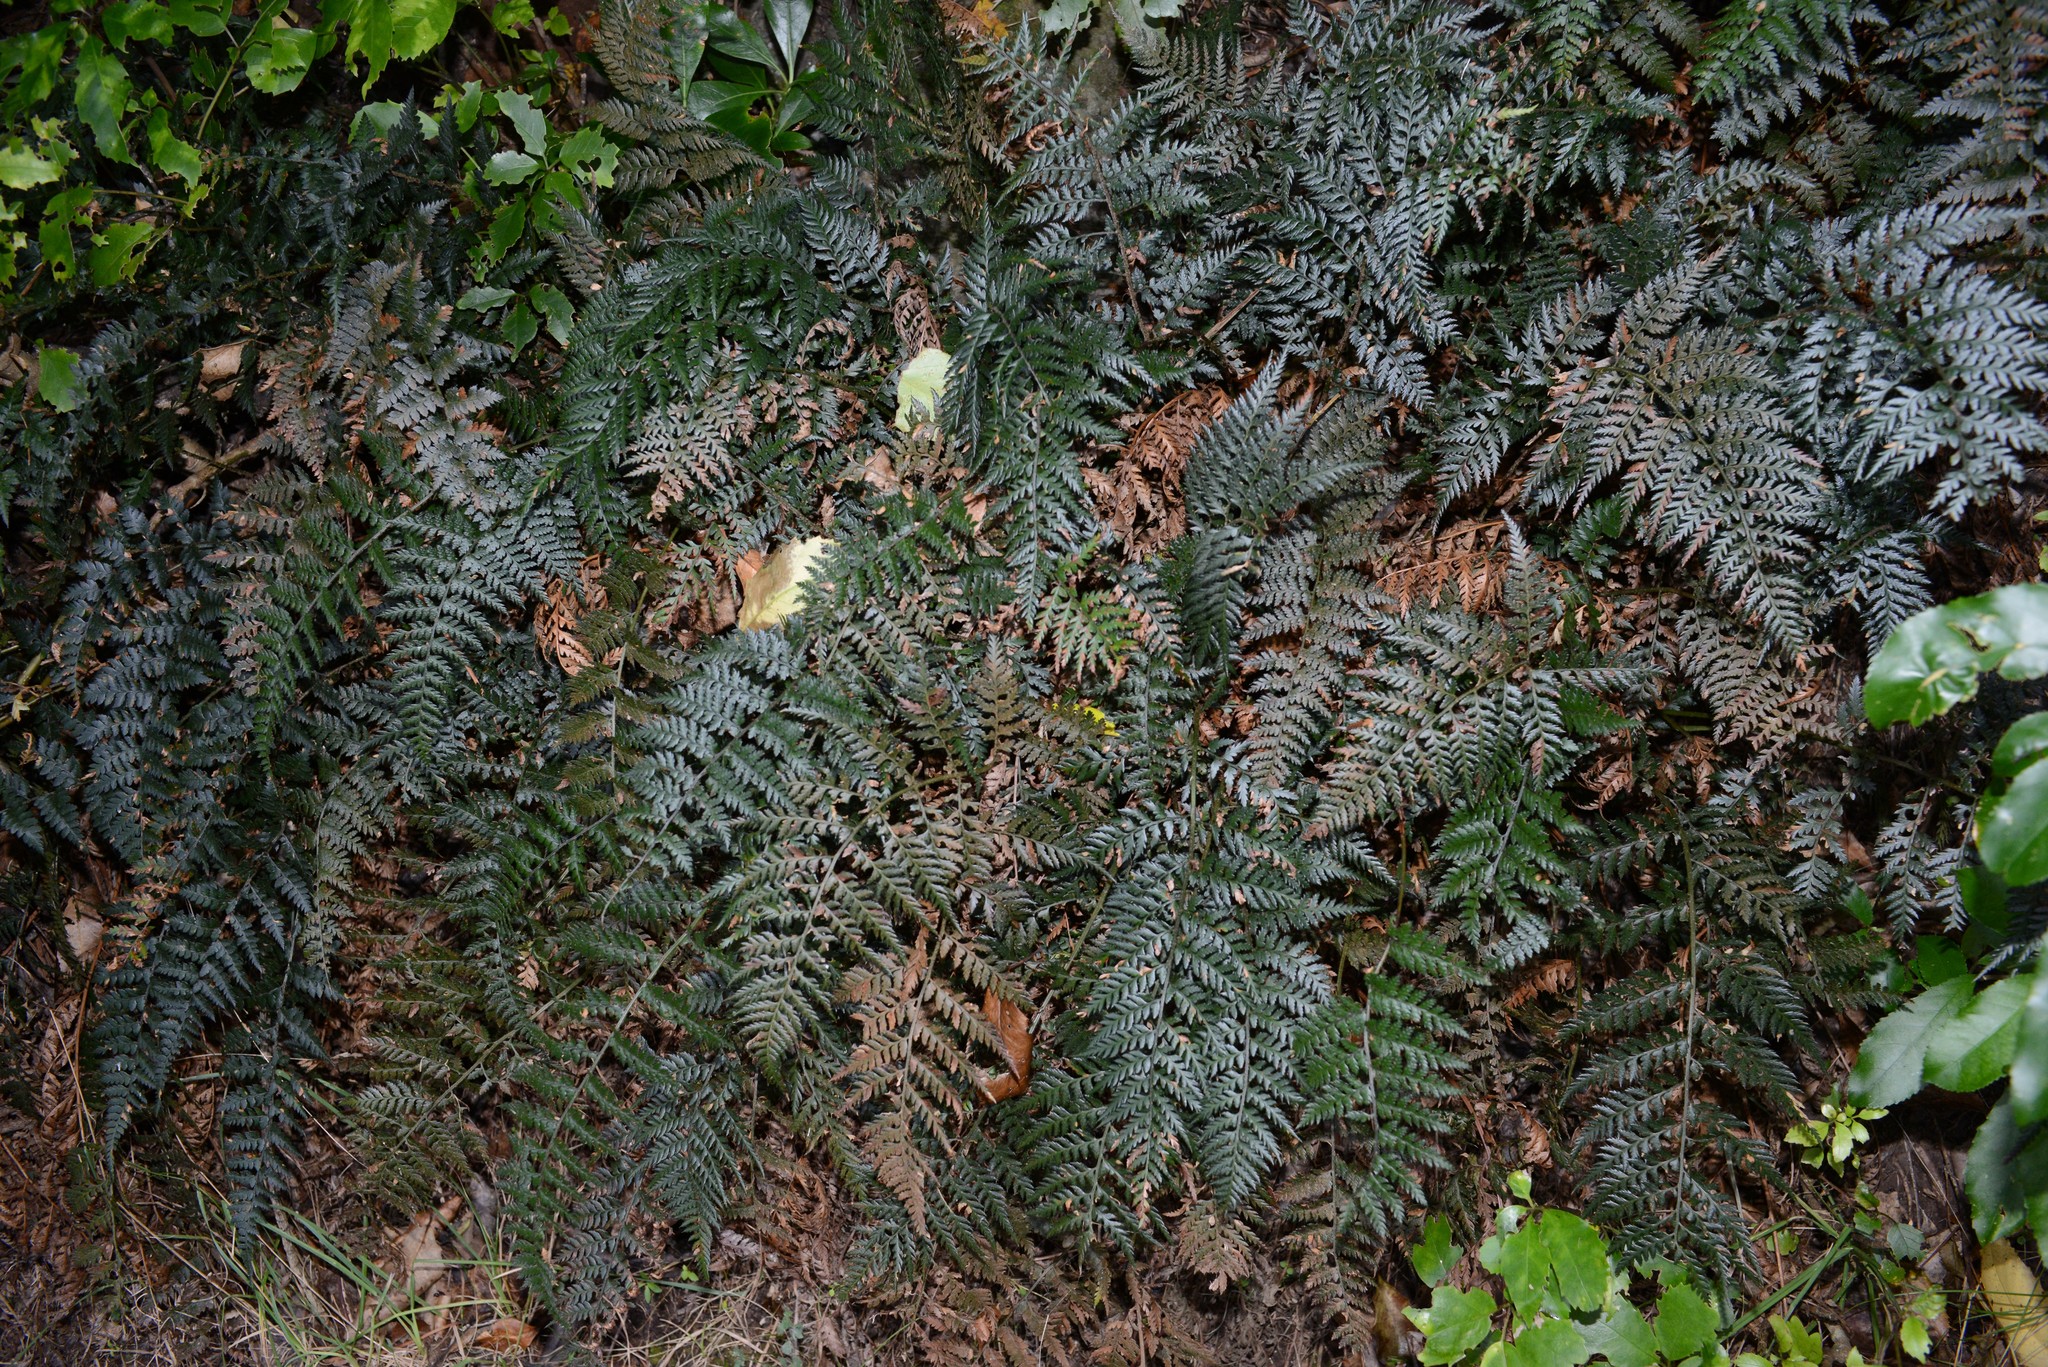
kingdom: Plantae
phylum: Tracheophyta
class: Polypodiopsida
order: Polypodiales
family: Dryopteridaceae
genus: Polystichum
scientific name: Polystichum oculatum
